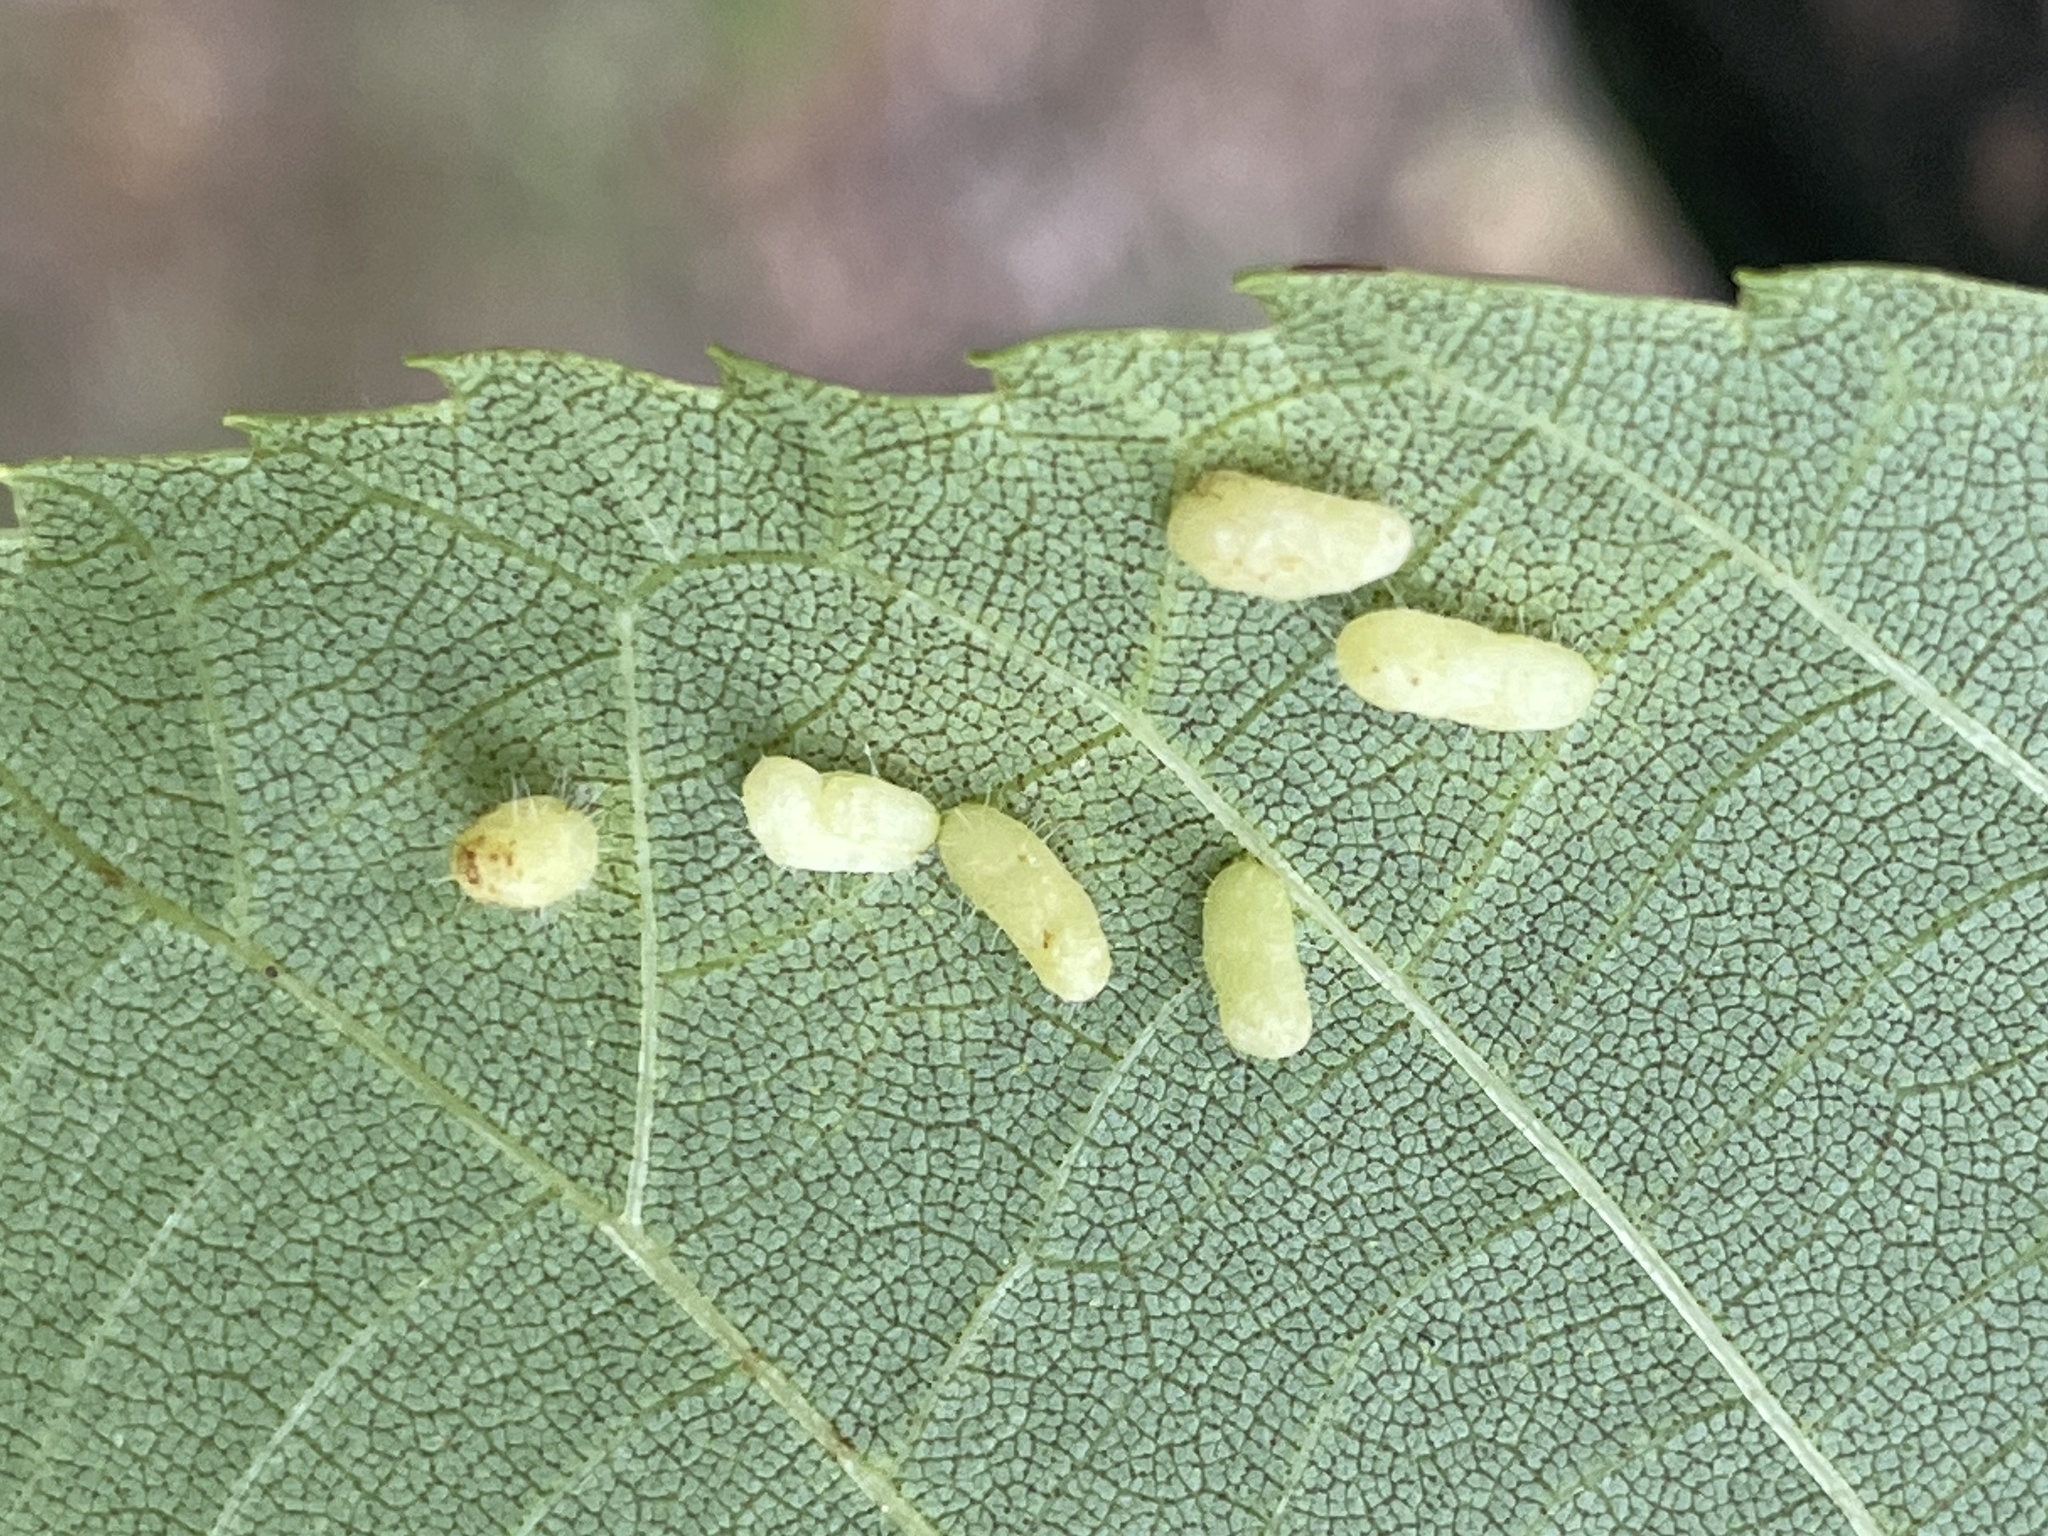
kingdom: Animalia
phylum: Arthropoda
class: Insecta
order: Diptera
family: Cecidomyiidae
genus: Contarinia
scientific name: Contarinia cucumata
